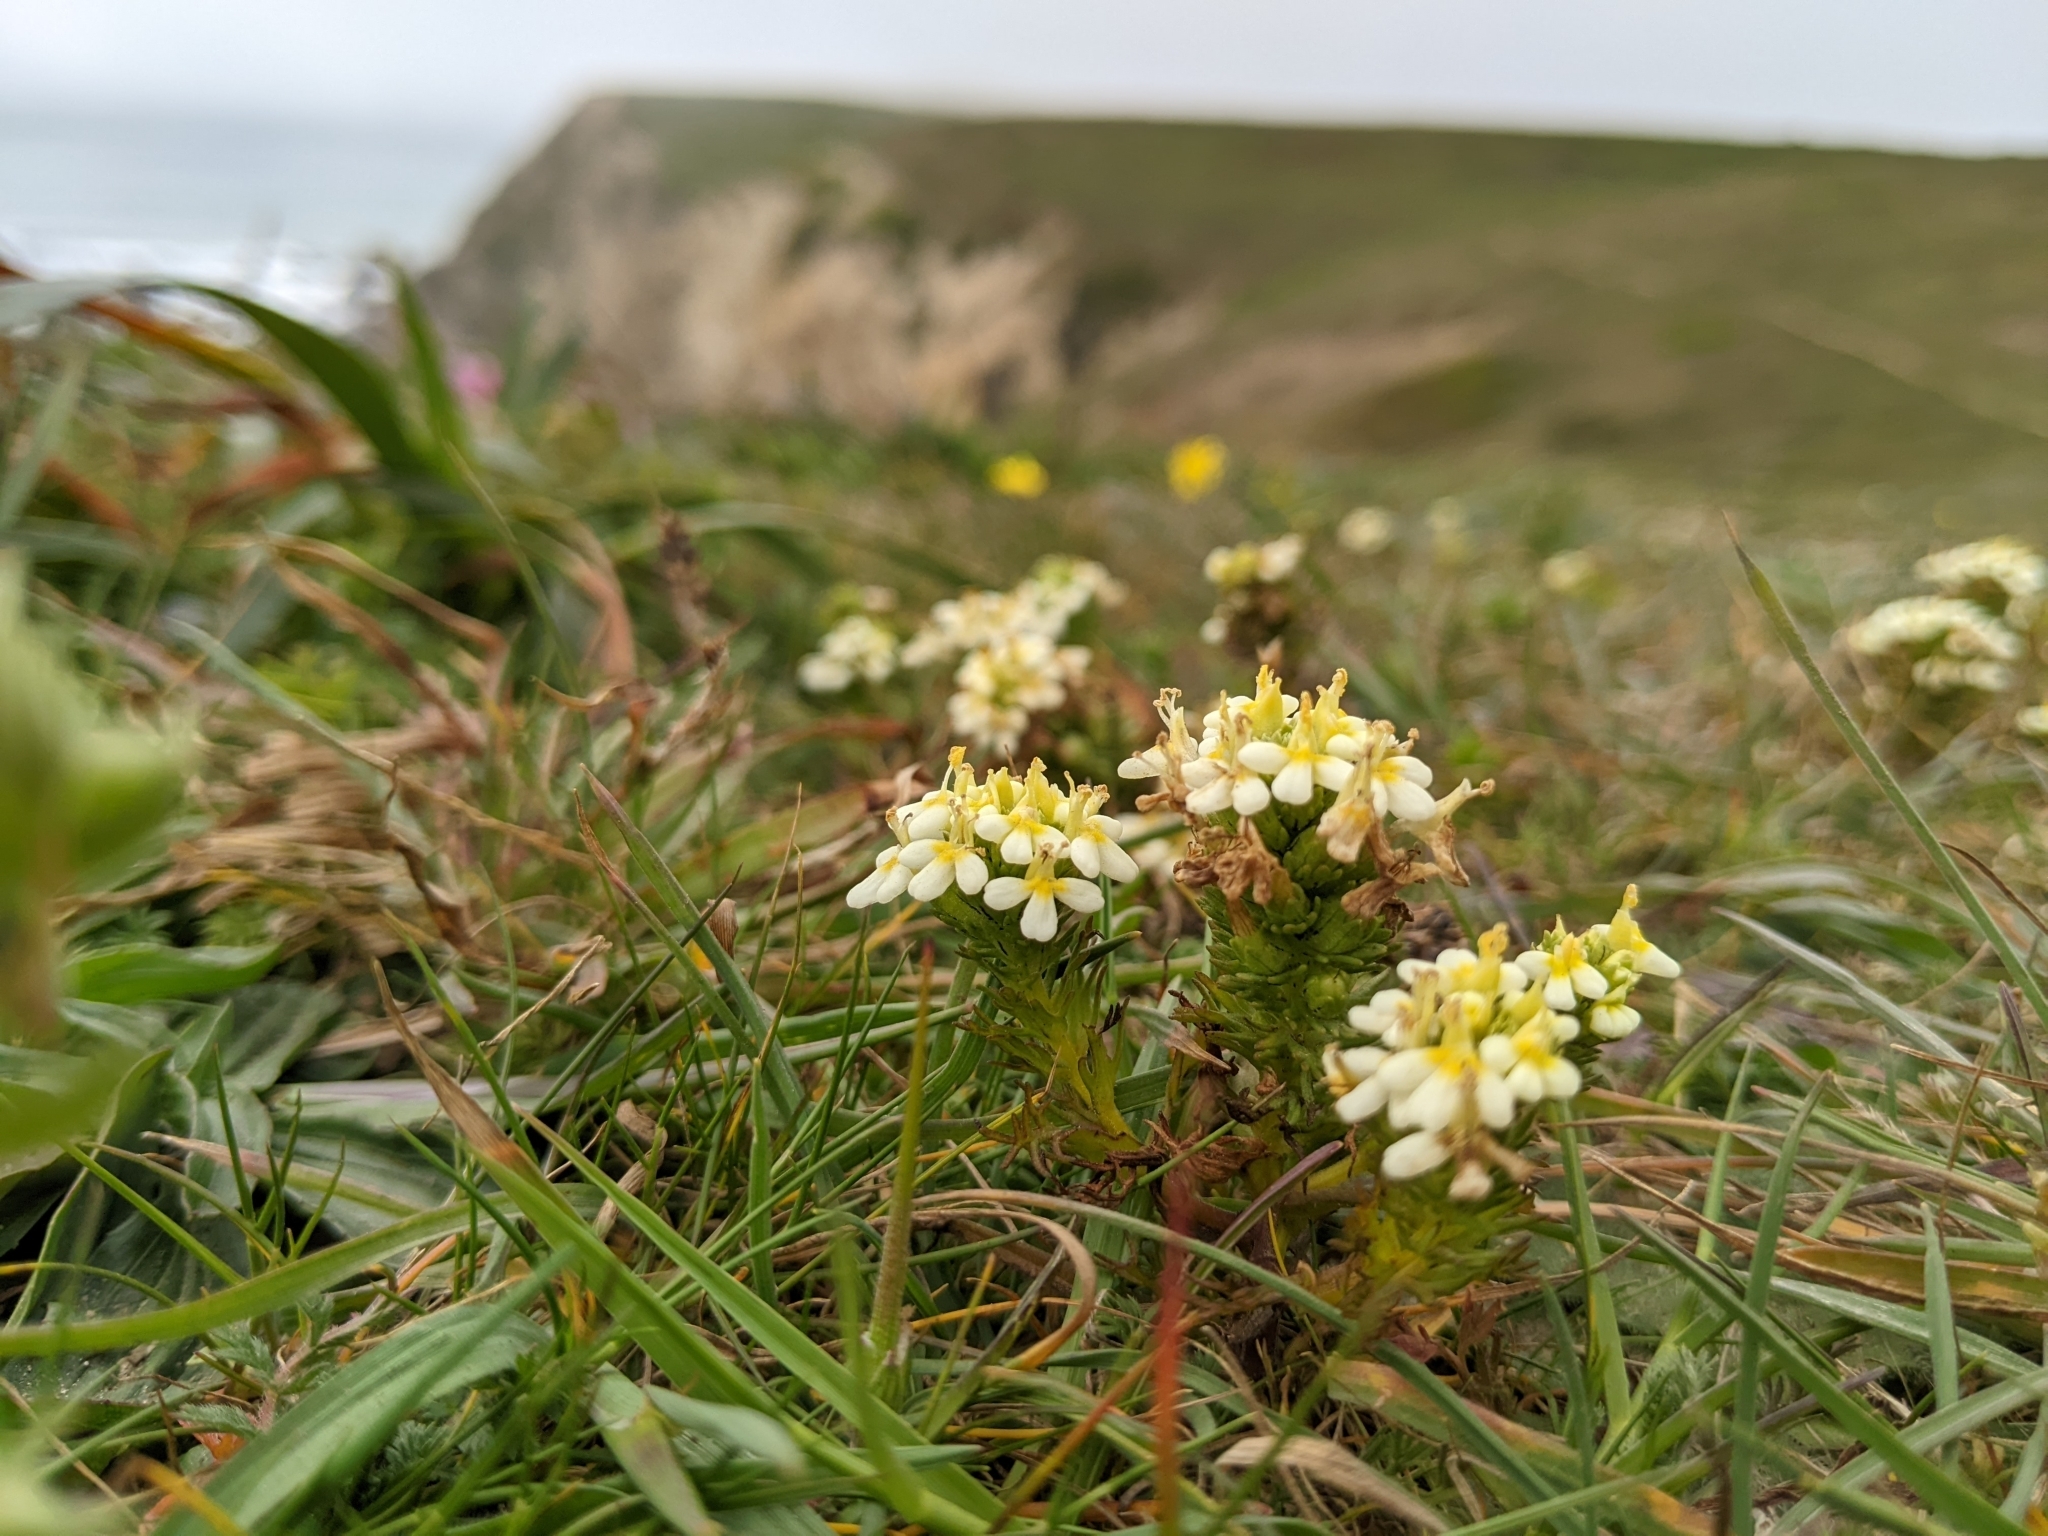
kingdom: Plantae
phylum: Tracheophyta
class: Magnoliopsida
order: Lamiales
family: Orobanchaceae
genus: Triphysaria
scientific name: Triphysaria floribunda
